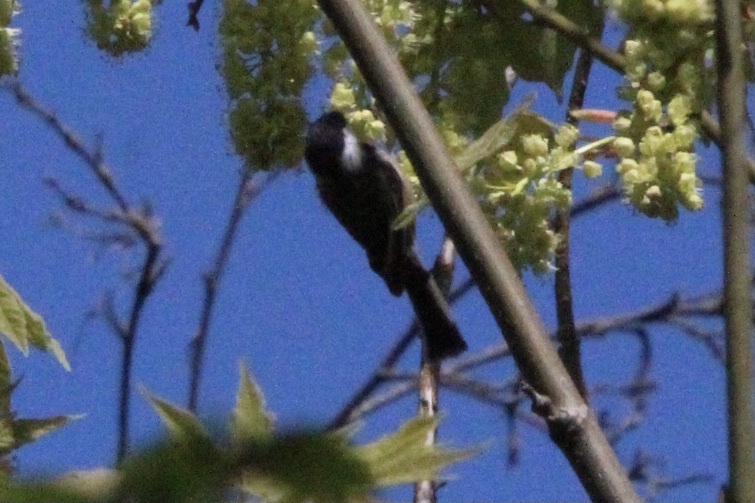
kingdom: Animalia
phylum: Chordata
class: Aves
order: Passeriformes
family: Paridae
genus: Poecile
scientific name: Poecile atricapillus
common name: Black-capped chickadee
